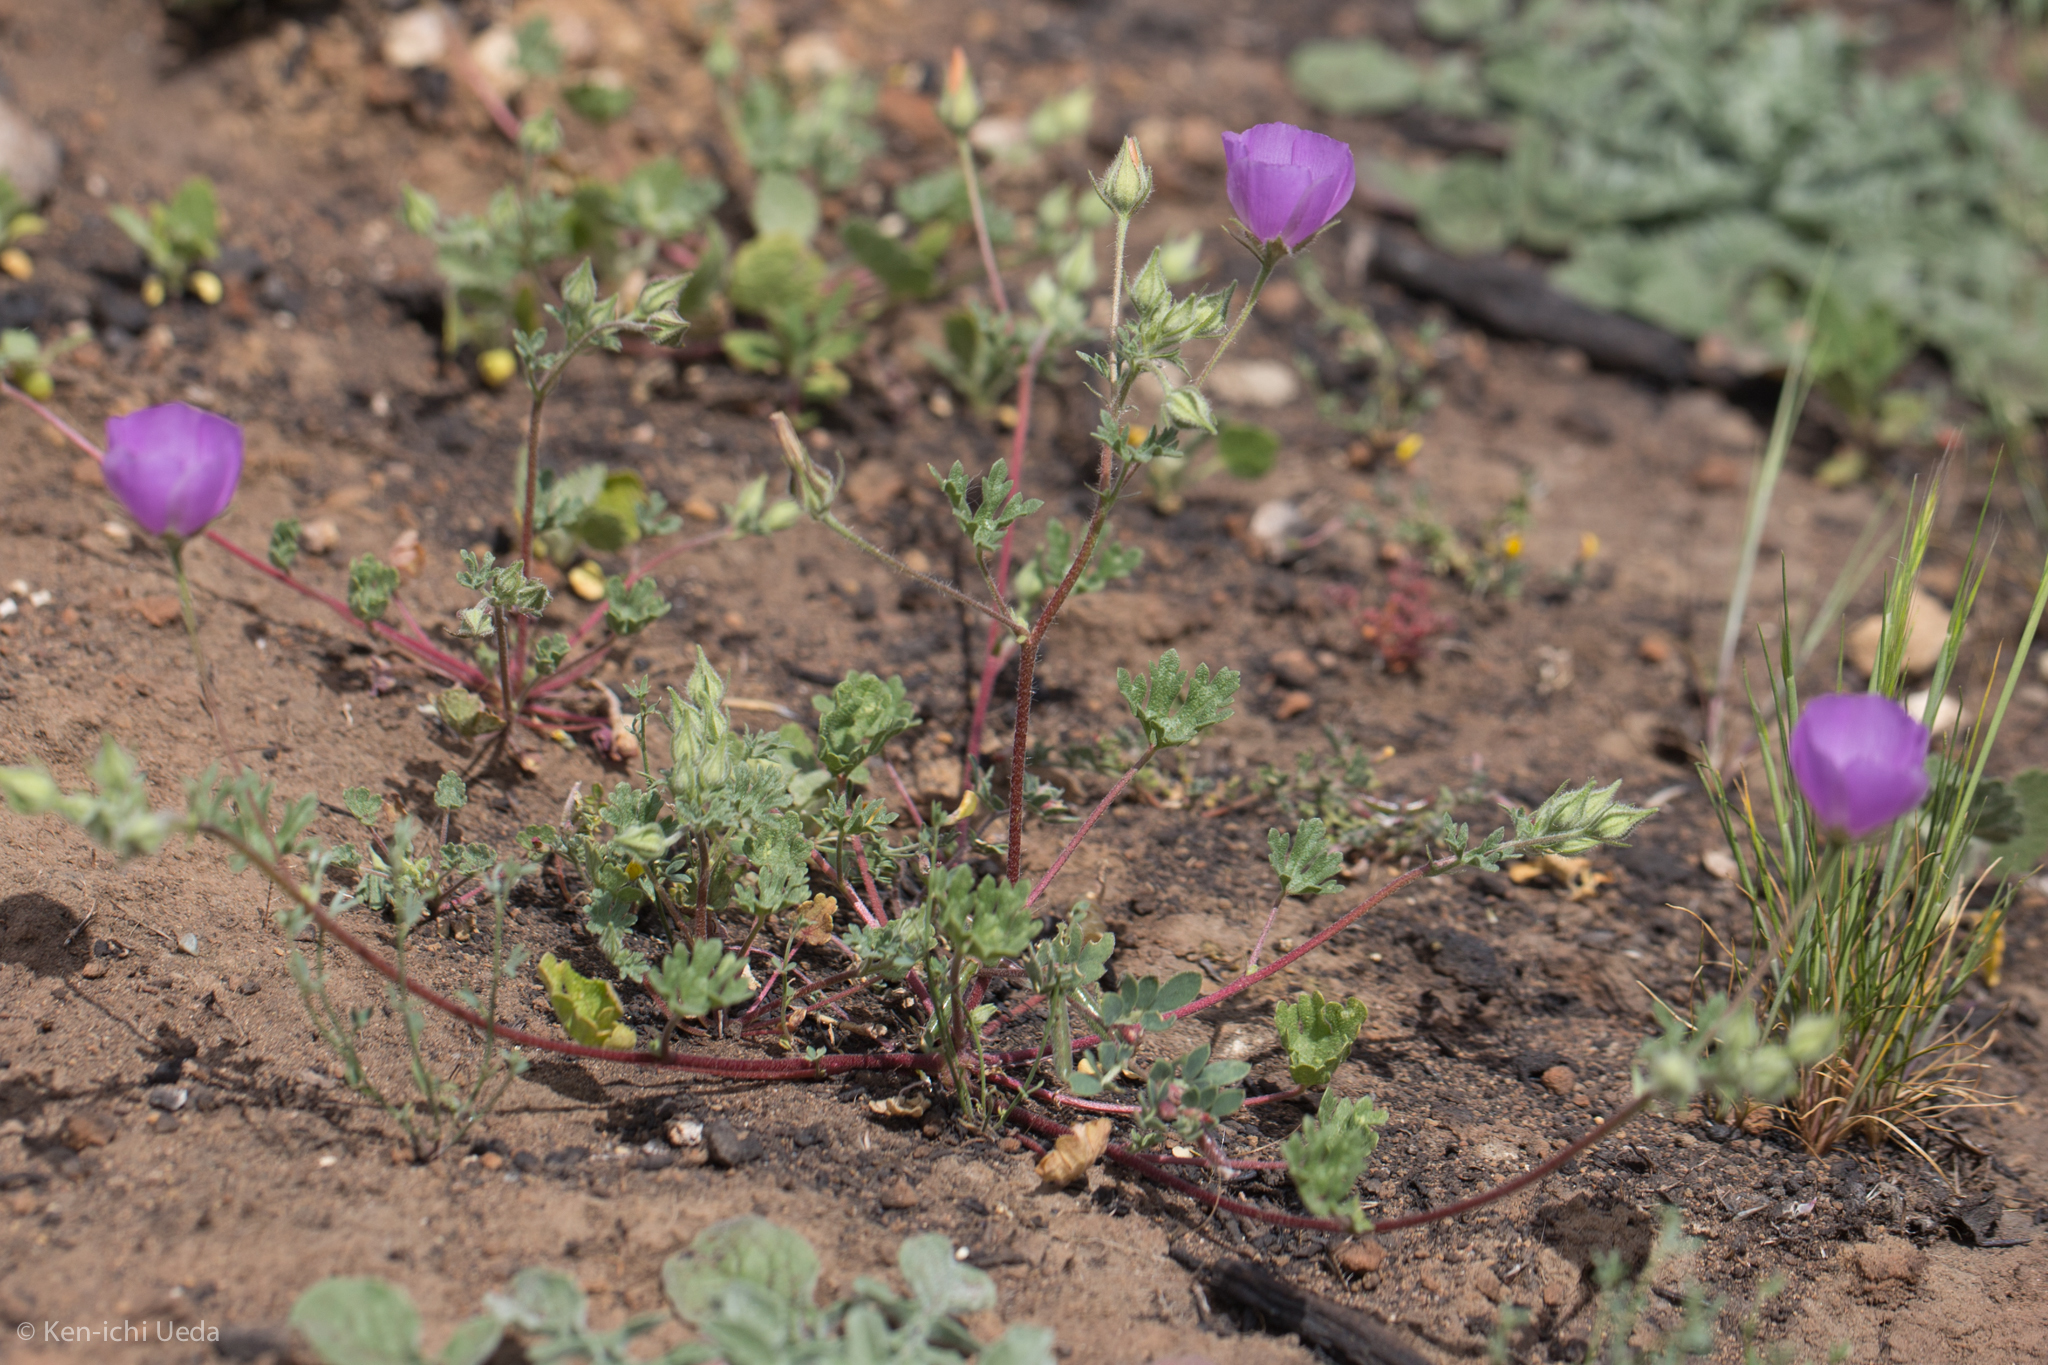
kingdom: Plantae
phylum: Tracheophyta
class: Magnoliopsida
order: Malvales
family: Malvaceae
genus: Eremalche
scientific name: Eremalche parryi
